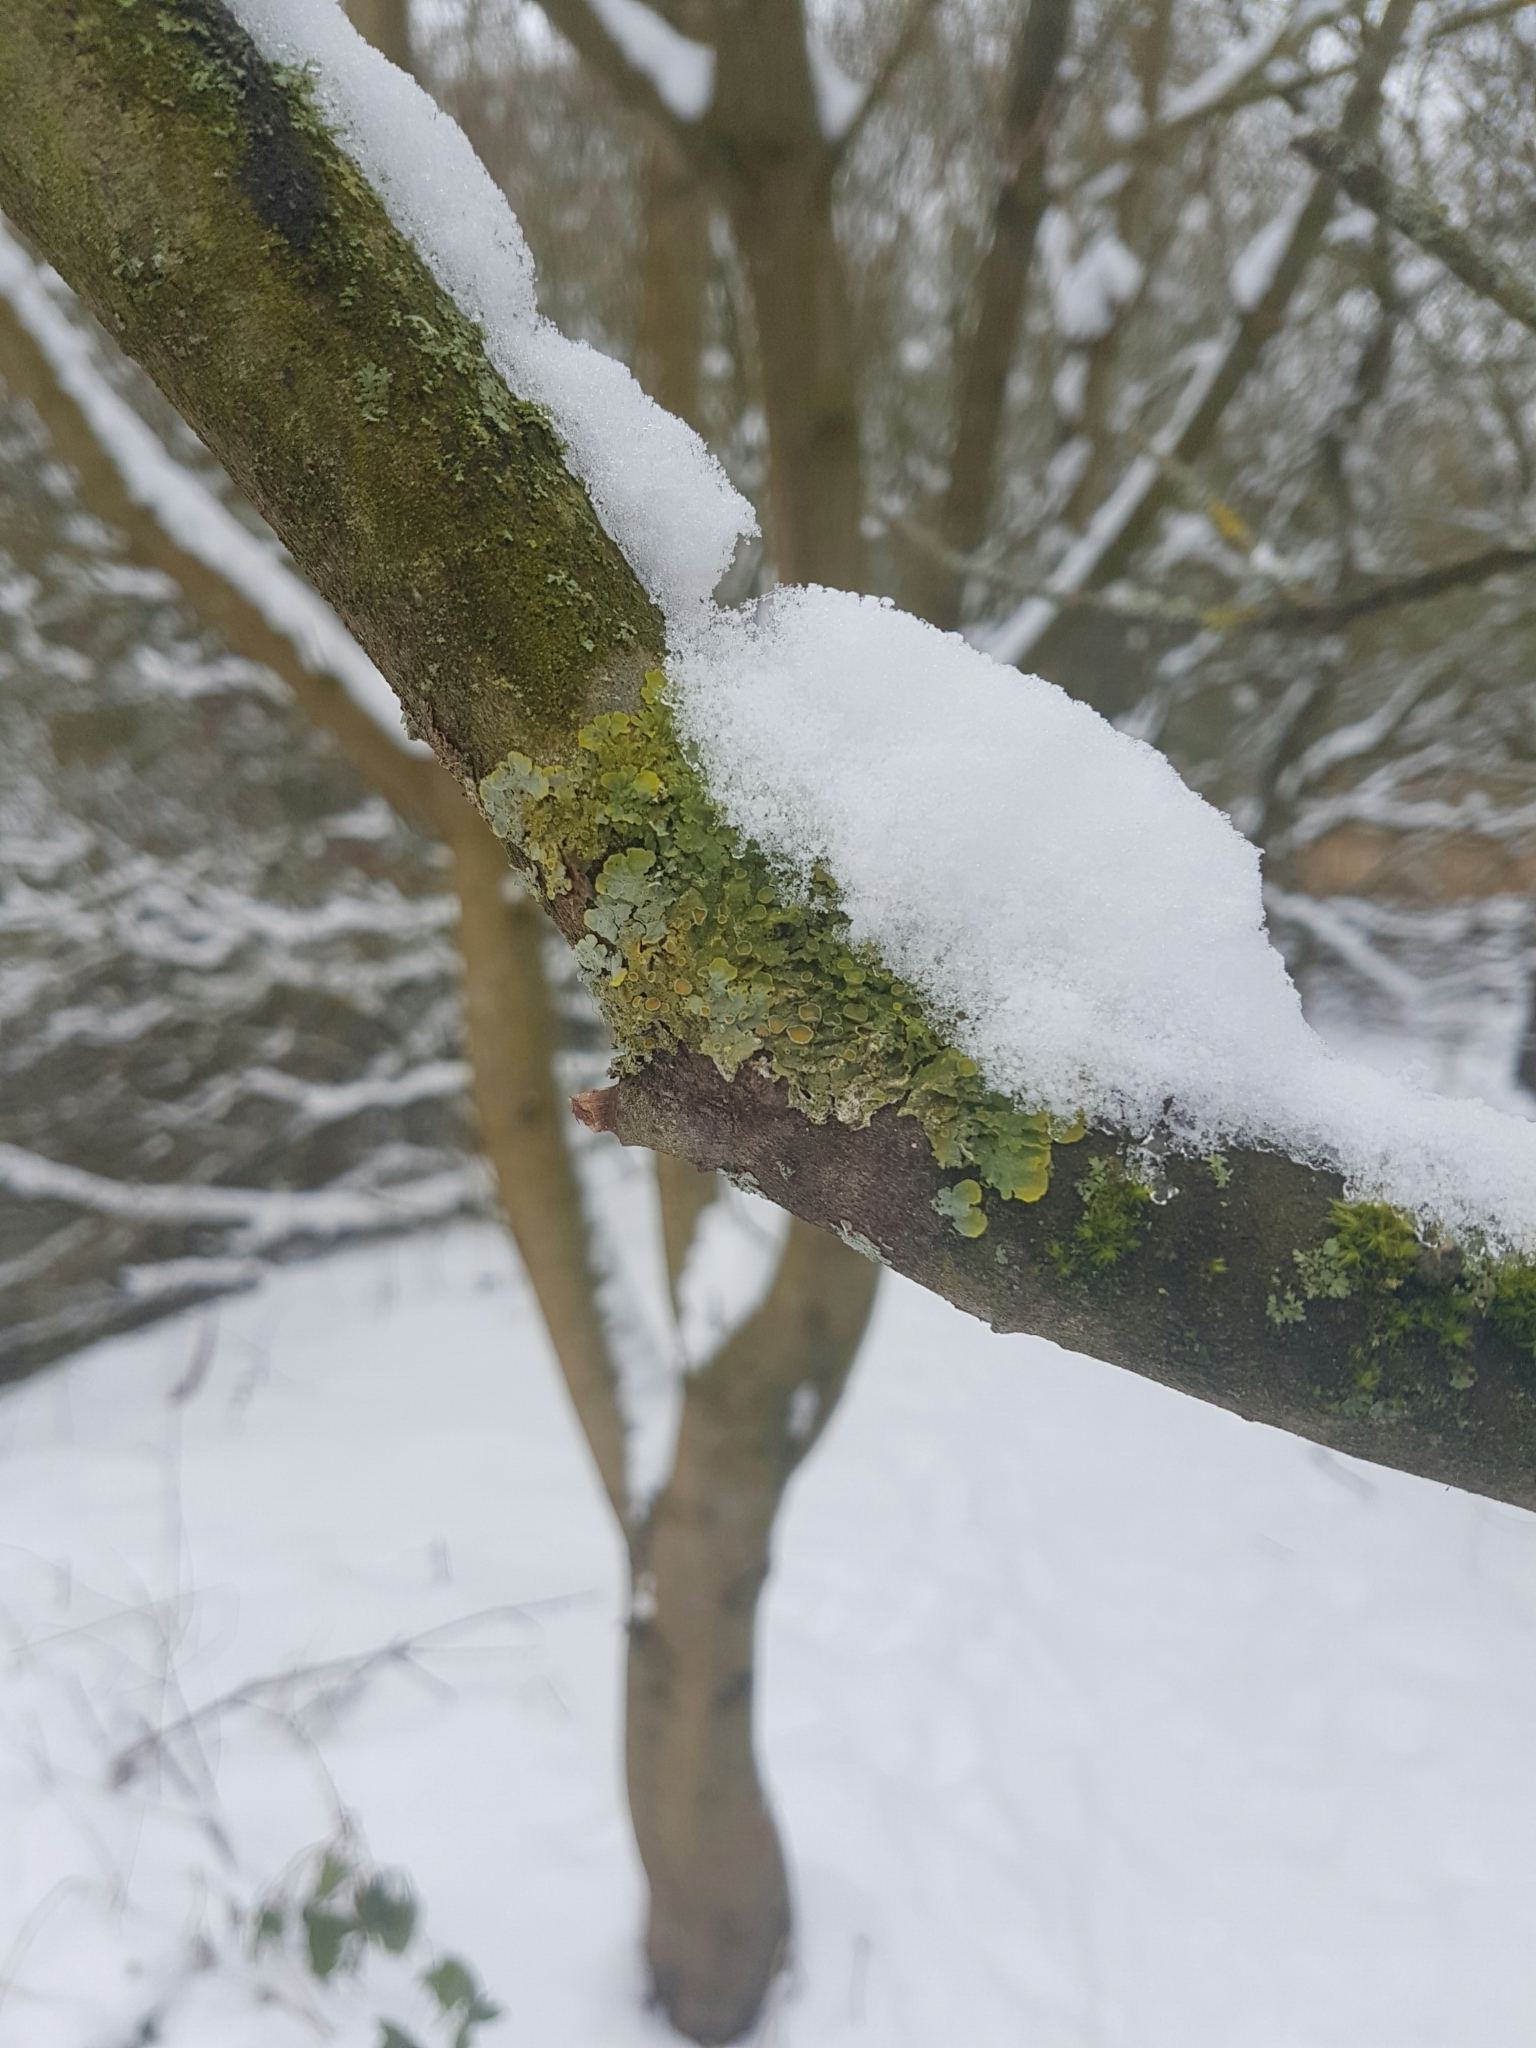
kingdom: Fungi
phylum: Ascomycota
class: Lecanoromycetes
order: Teloschistales
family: Teloschistaceae
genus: Xanthoria
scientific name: Xanthoria parietina
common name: Common orange lichen
